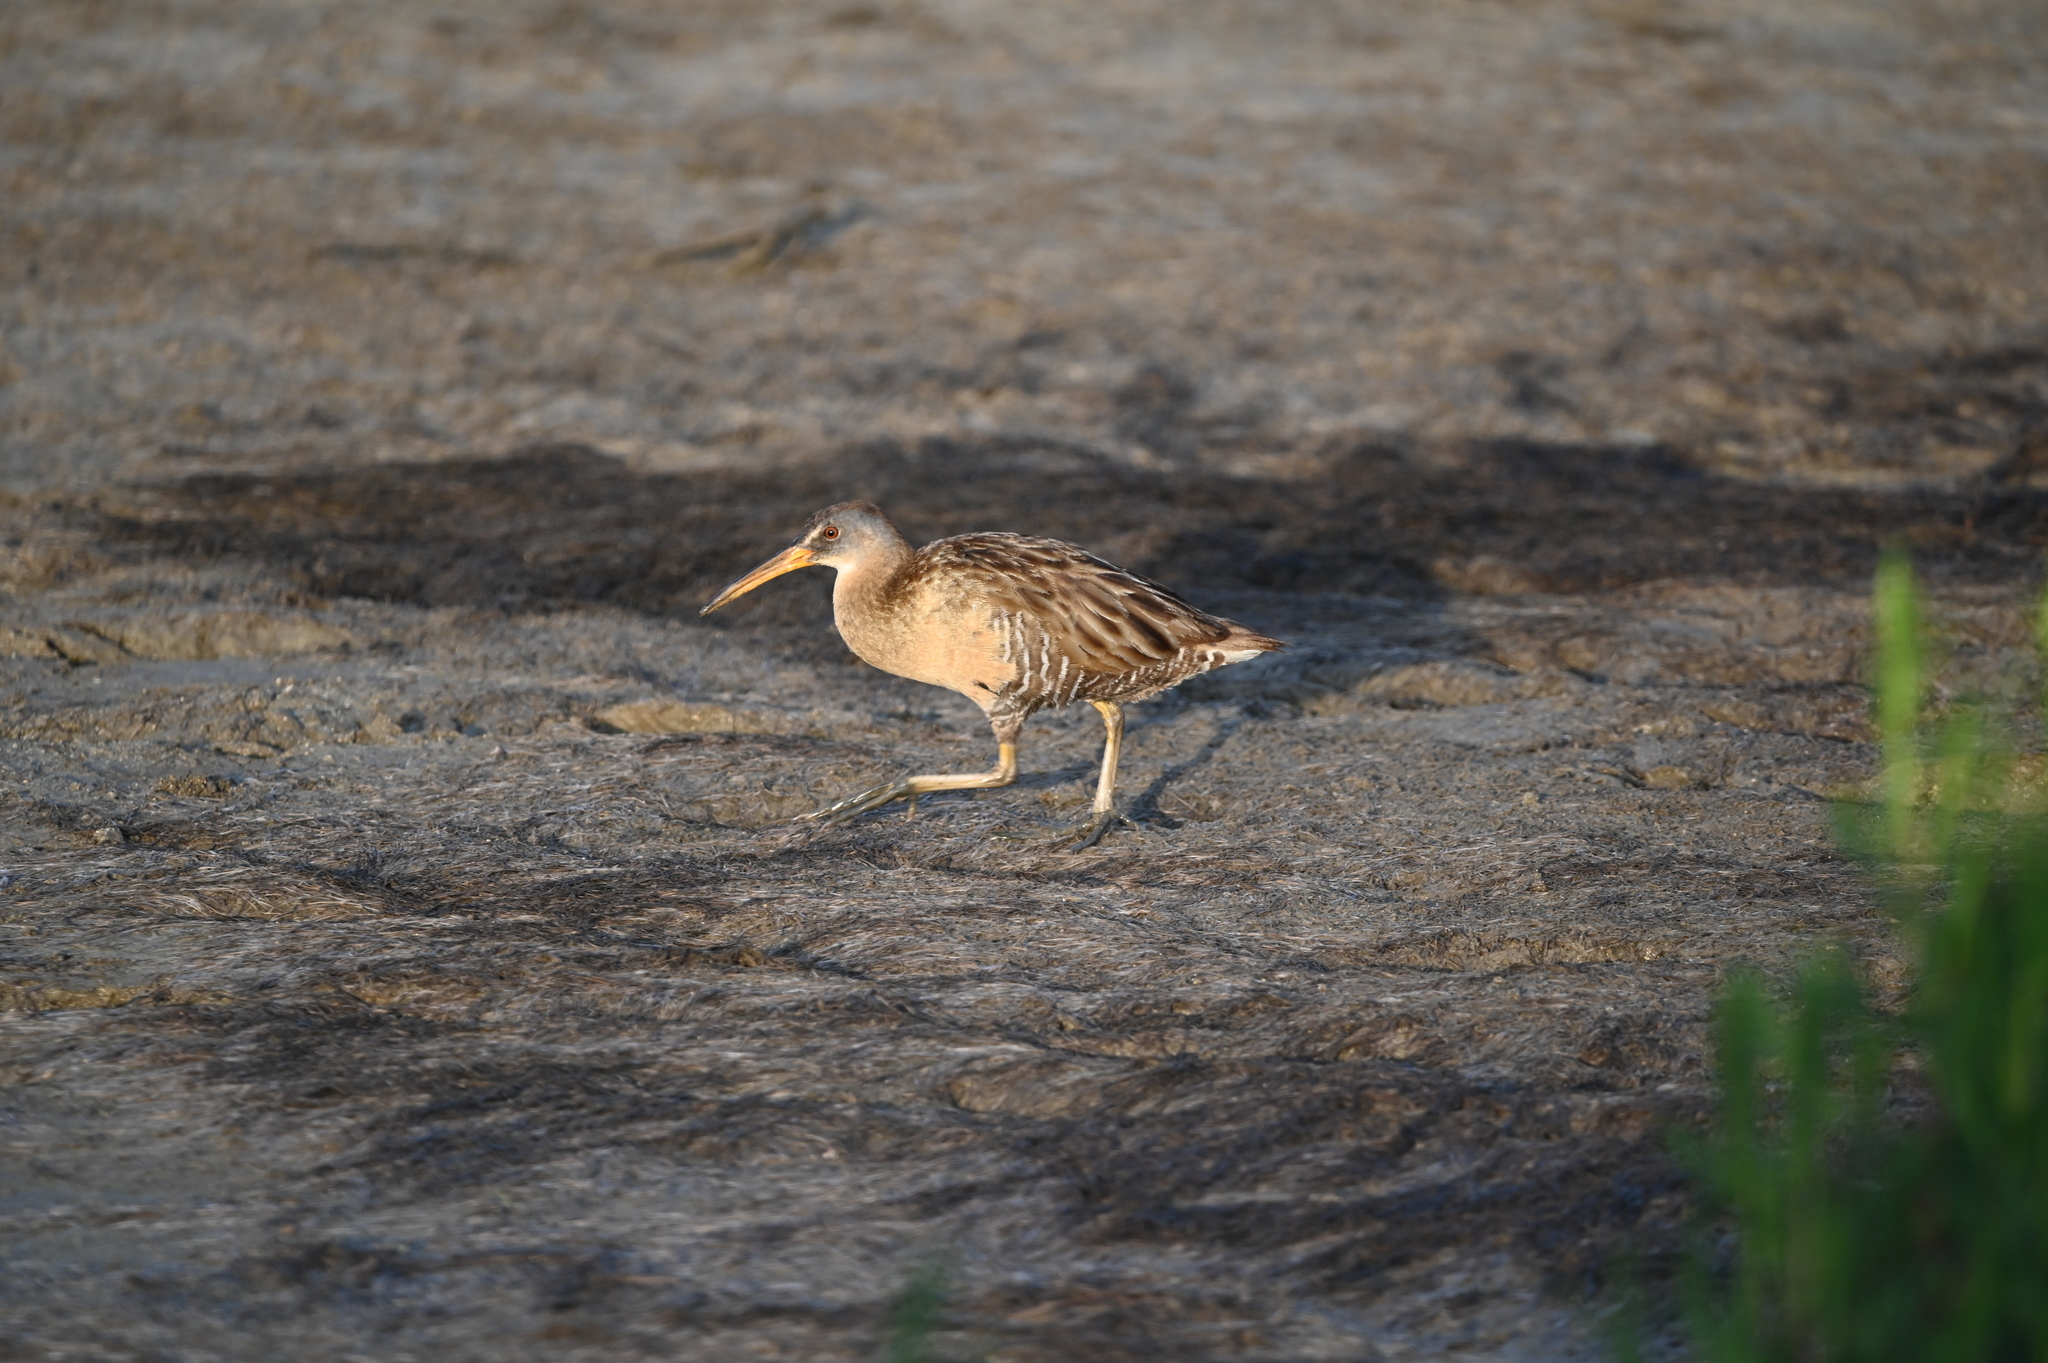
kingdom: Animalia
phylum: Chordata
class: Aves
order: Gruiformes
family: Rallidae
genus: Rallus
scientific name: Rallus crepitans
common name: Clapper rail
